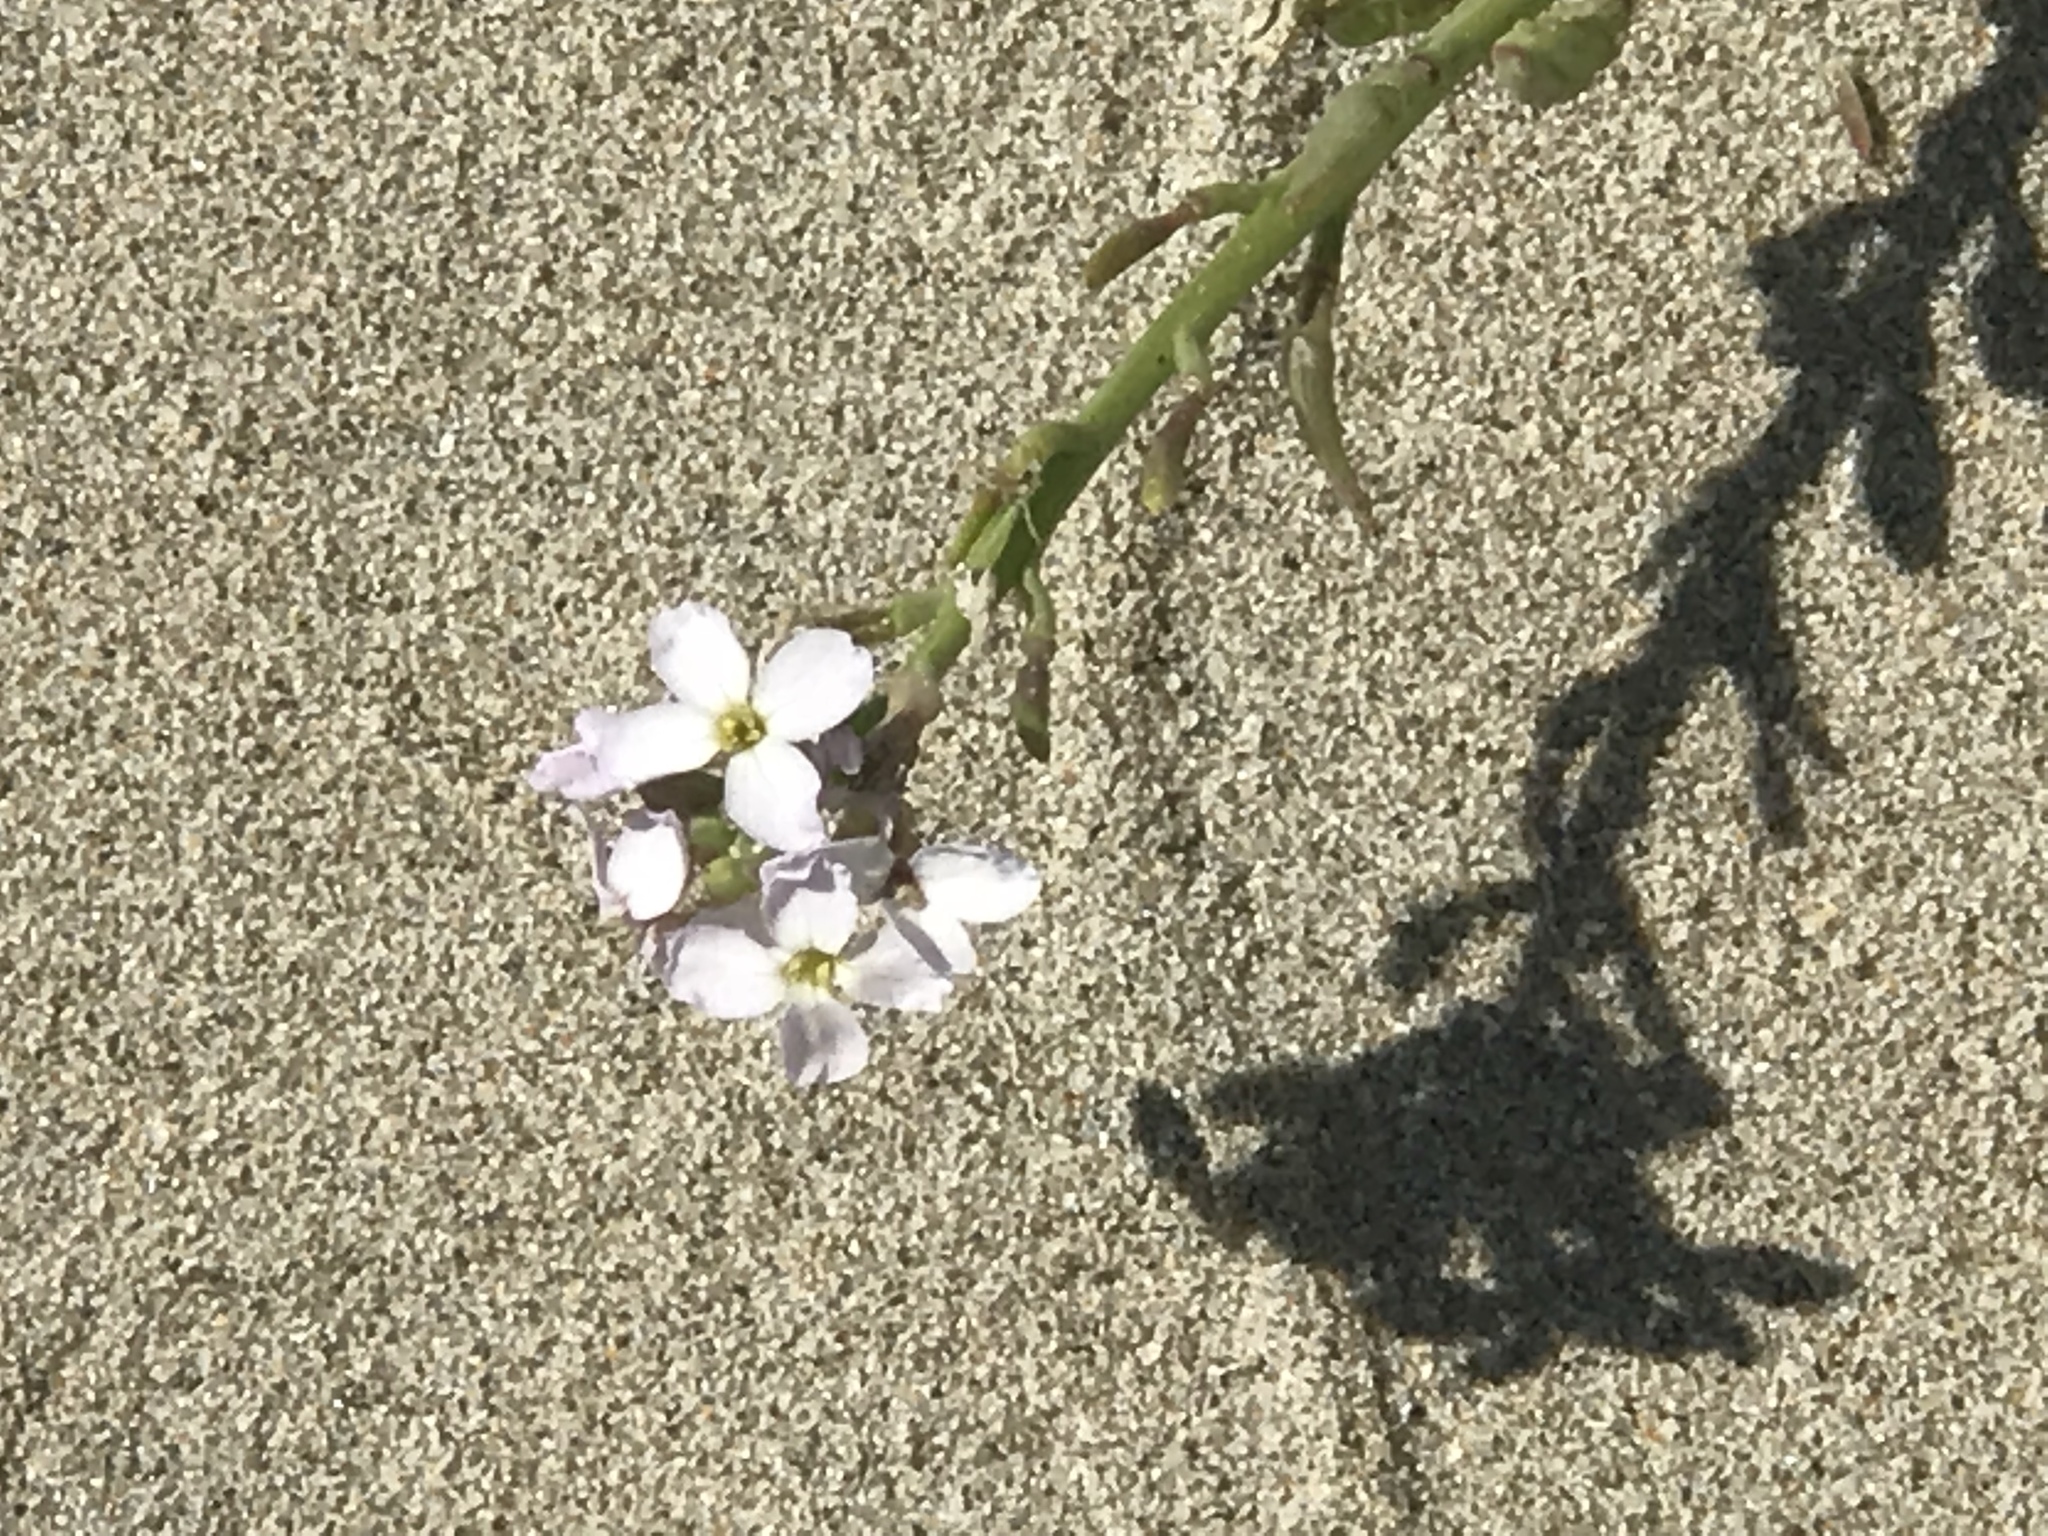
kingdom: Plantae
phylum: Tracheophyta
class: Magnoliopsida
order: Brassicales
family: Brassicaceae
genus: Cakile
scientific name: Cakile maritima
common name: Sea rocket
